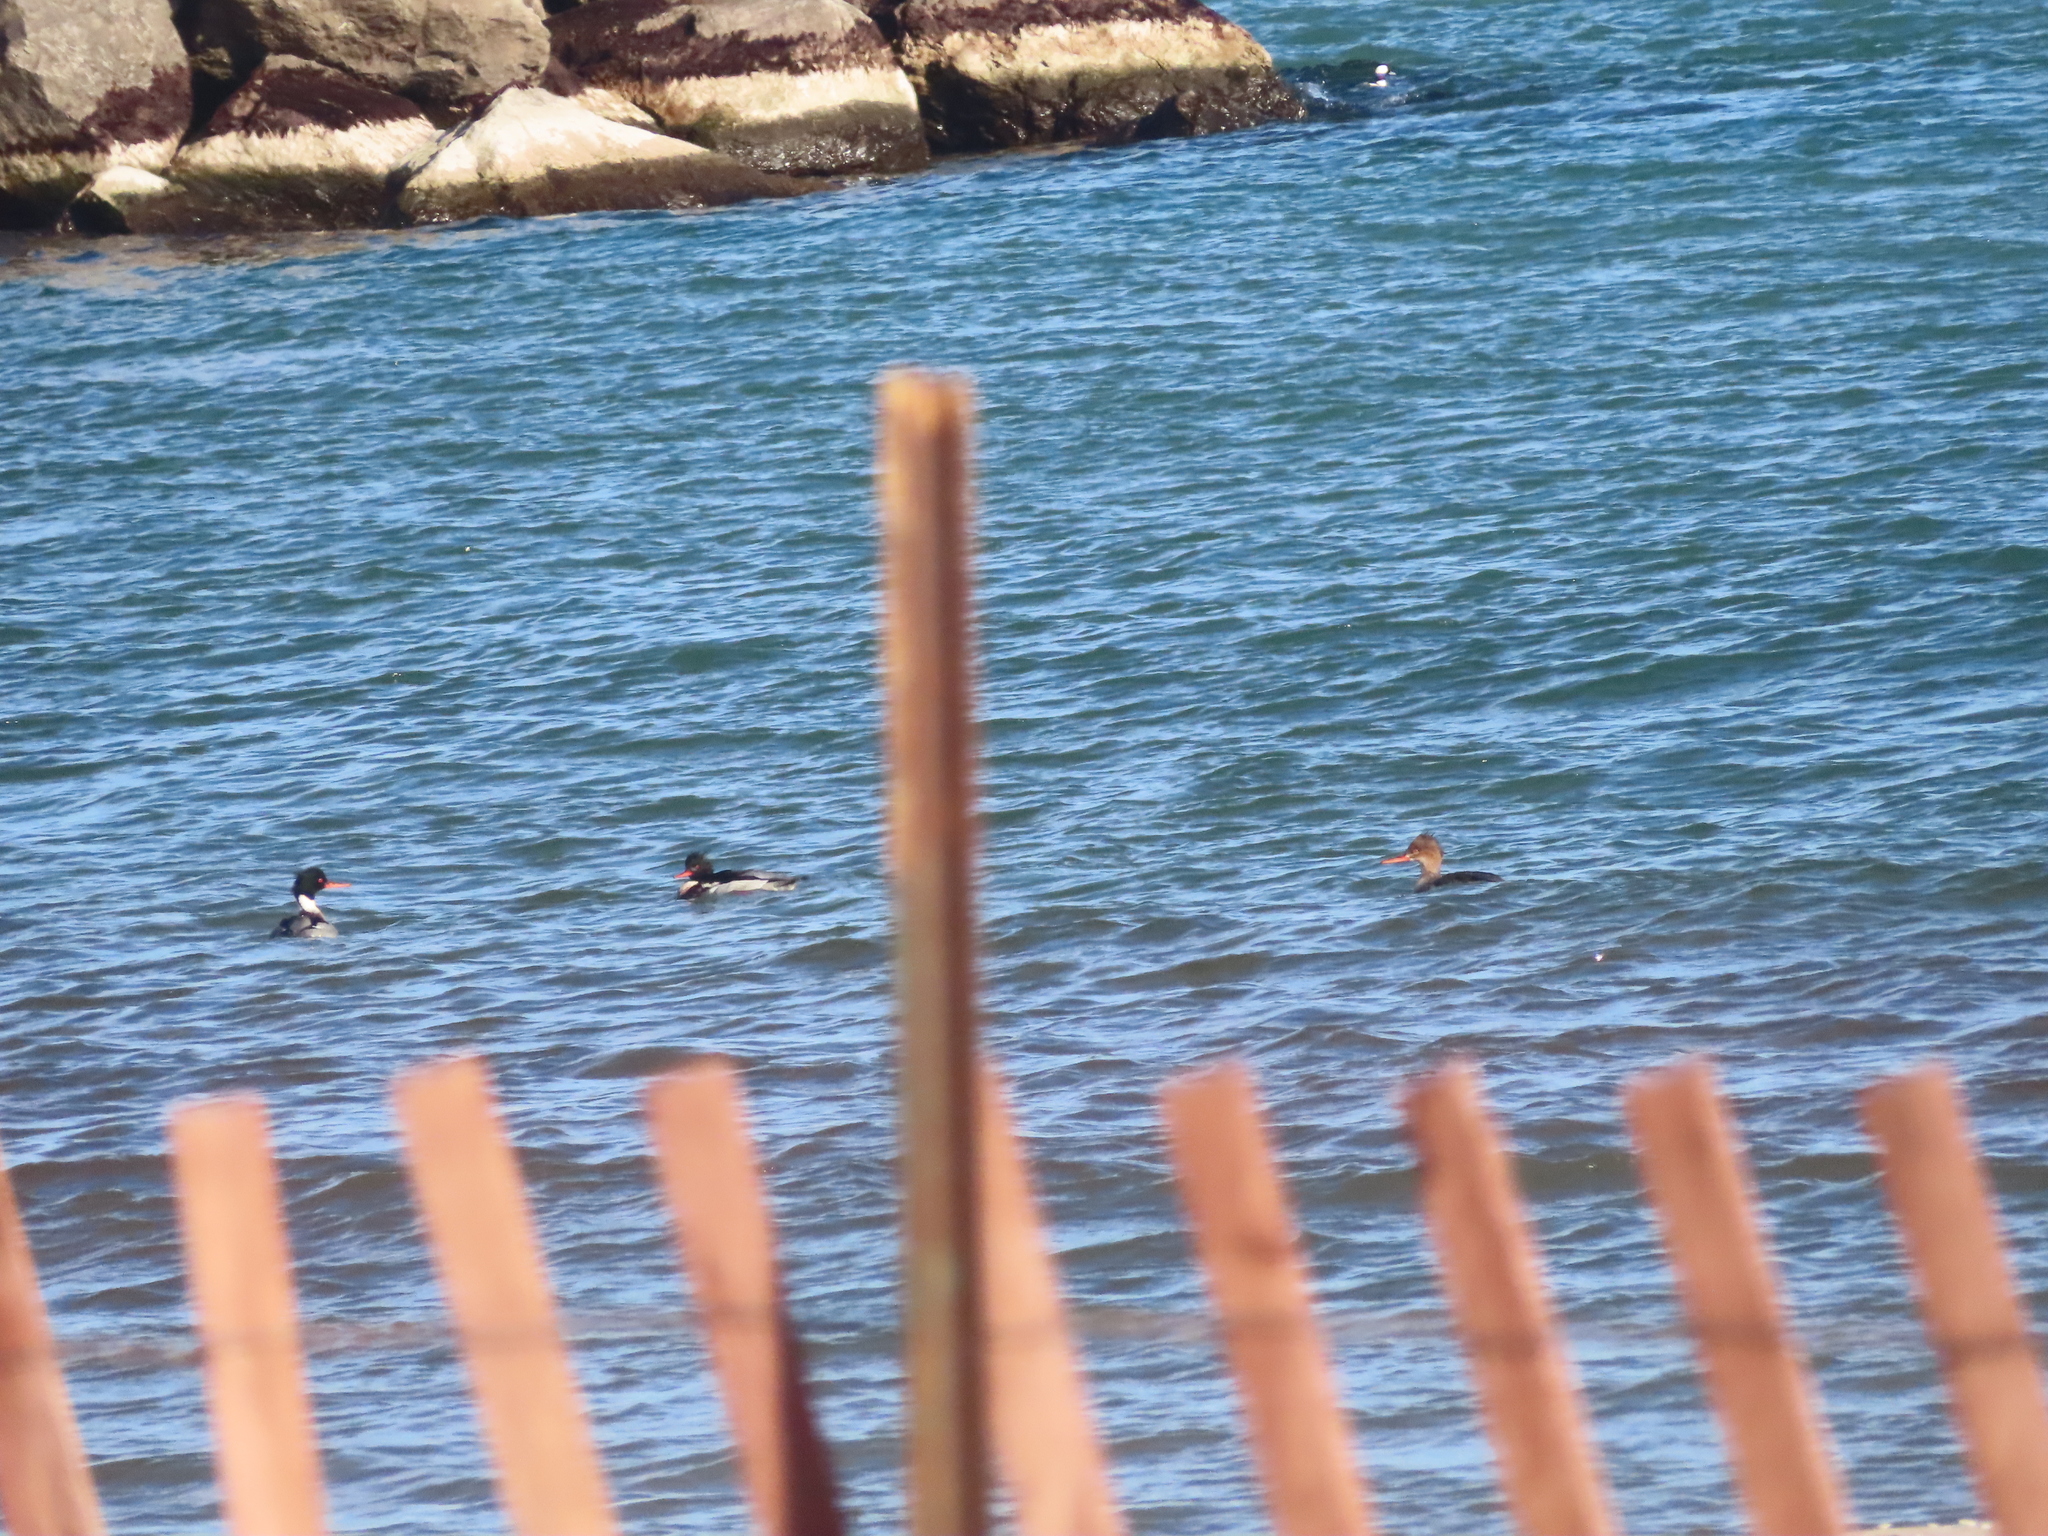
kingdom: Animalia
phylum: Chordata
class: Aves
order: Anseriformes
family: Anatidae
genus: Mergus
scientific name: Mergus serrator
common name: Red-breasted merganser
